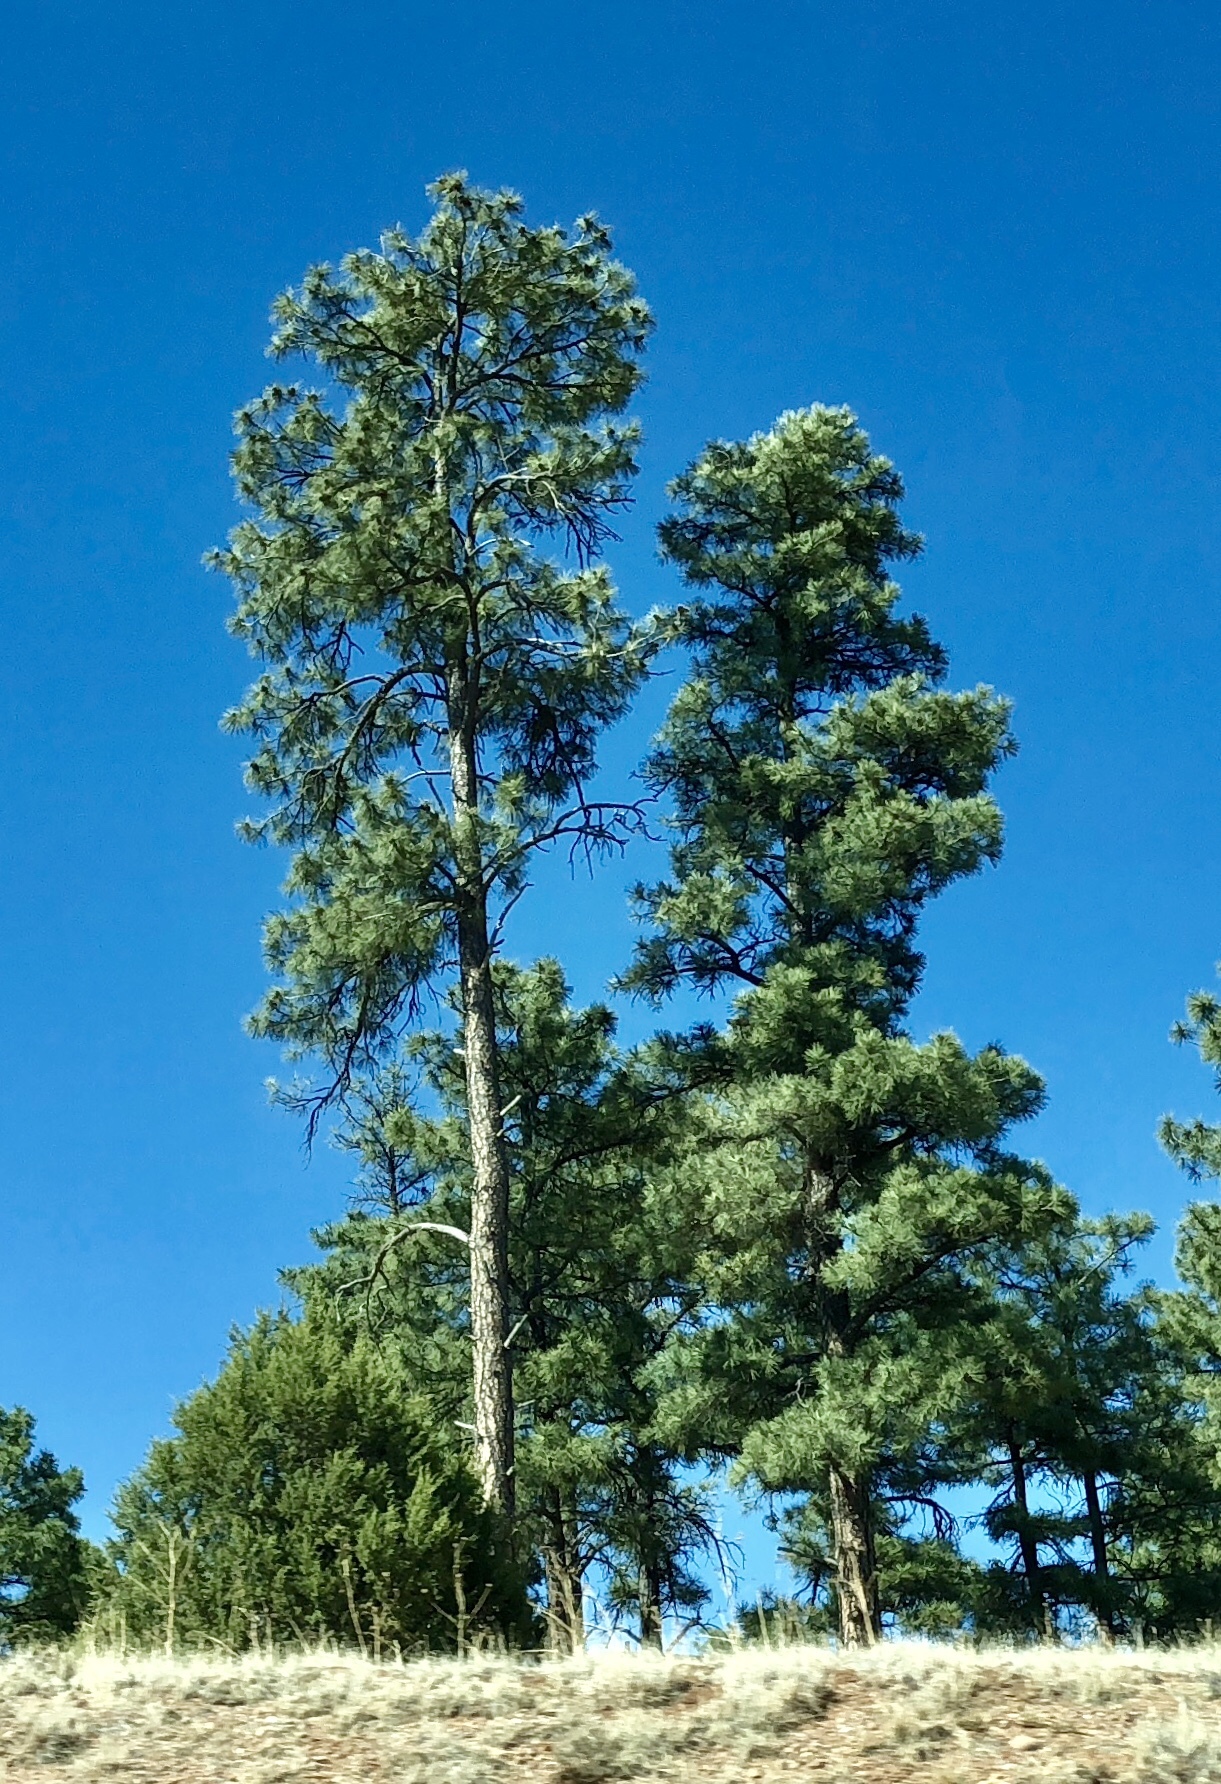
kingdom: Plantae
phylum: Tracheophyta
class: Pinopsida
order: Pinales
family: Pinaceae
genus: Pinus
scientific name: Pinus ponderosa
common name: Western yellow-pine
